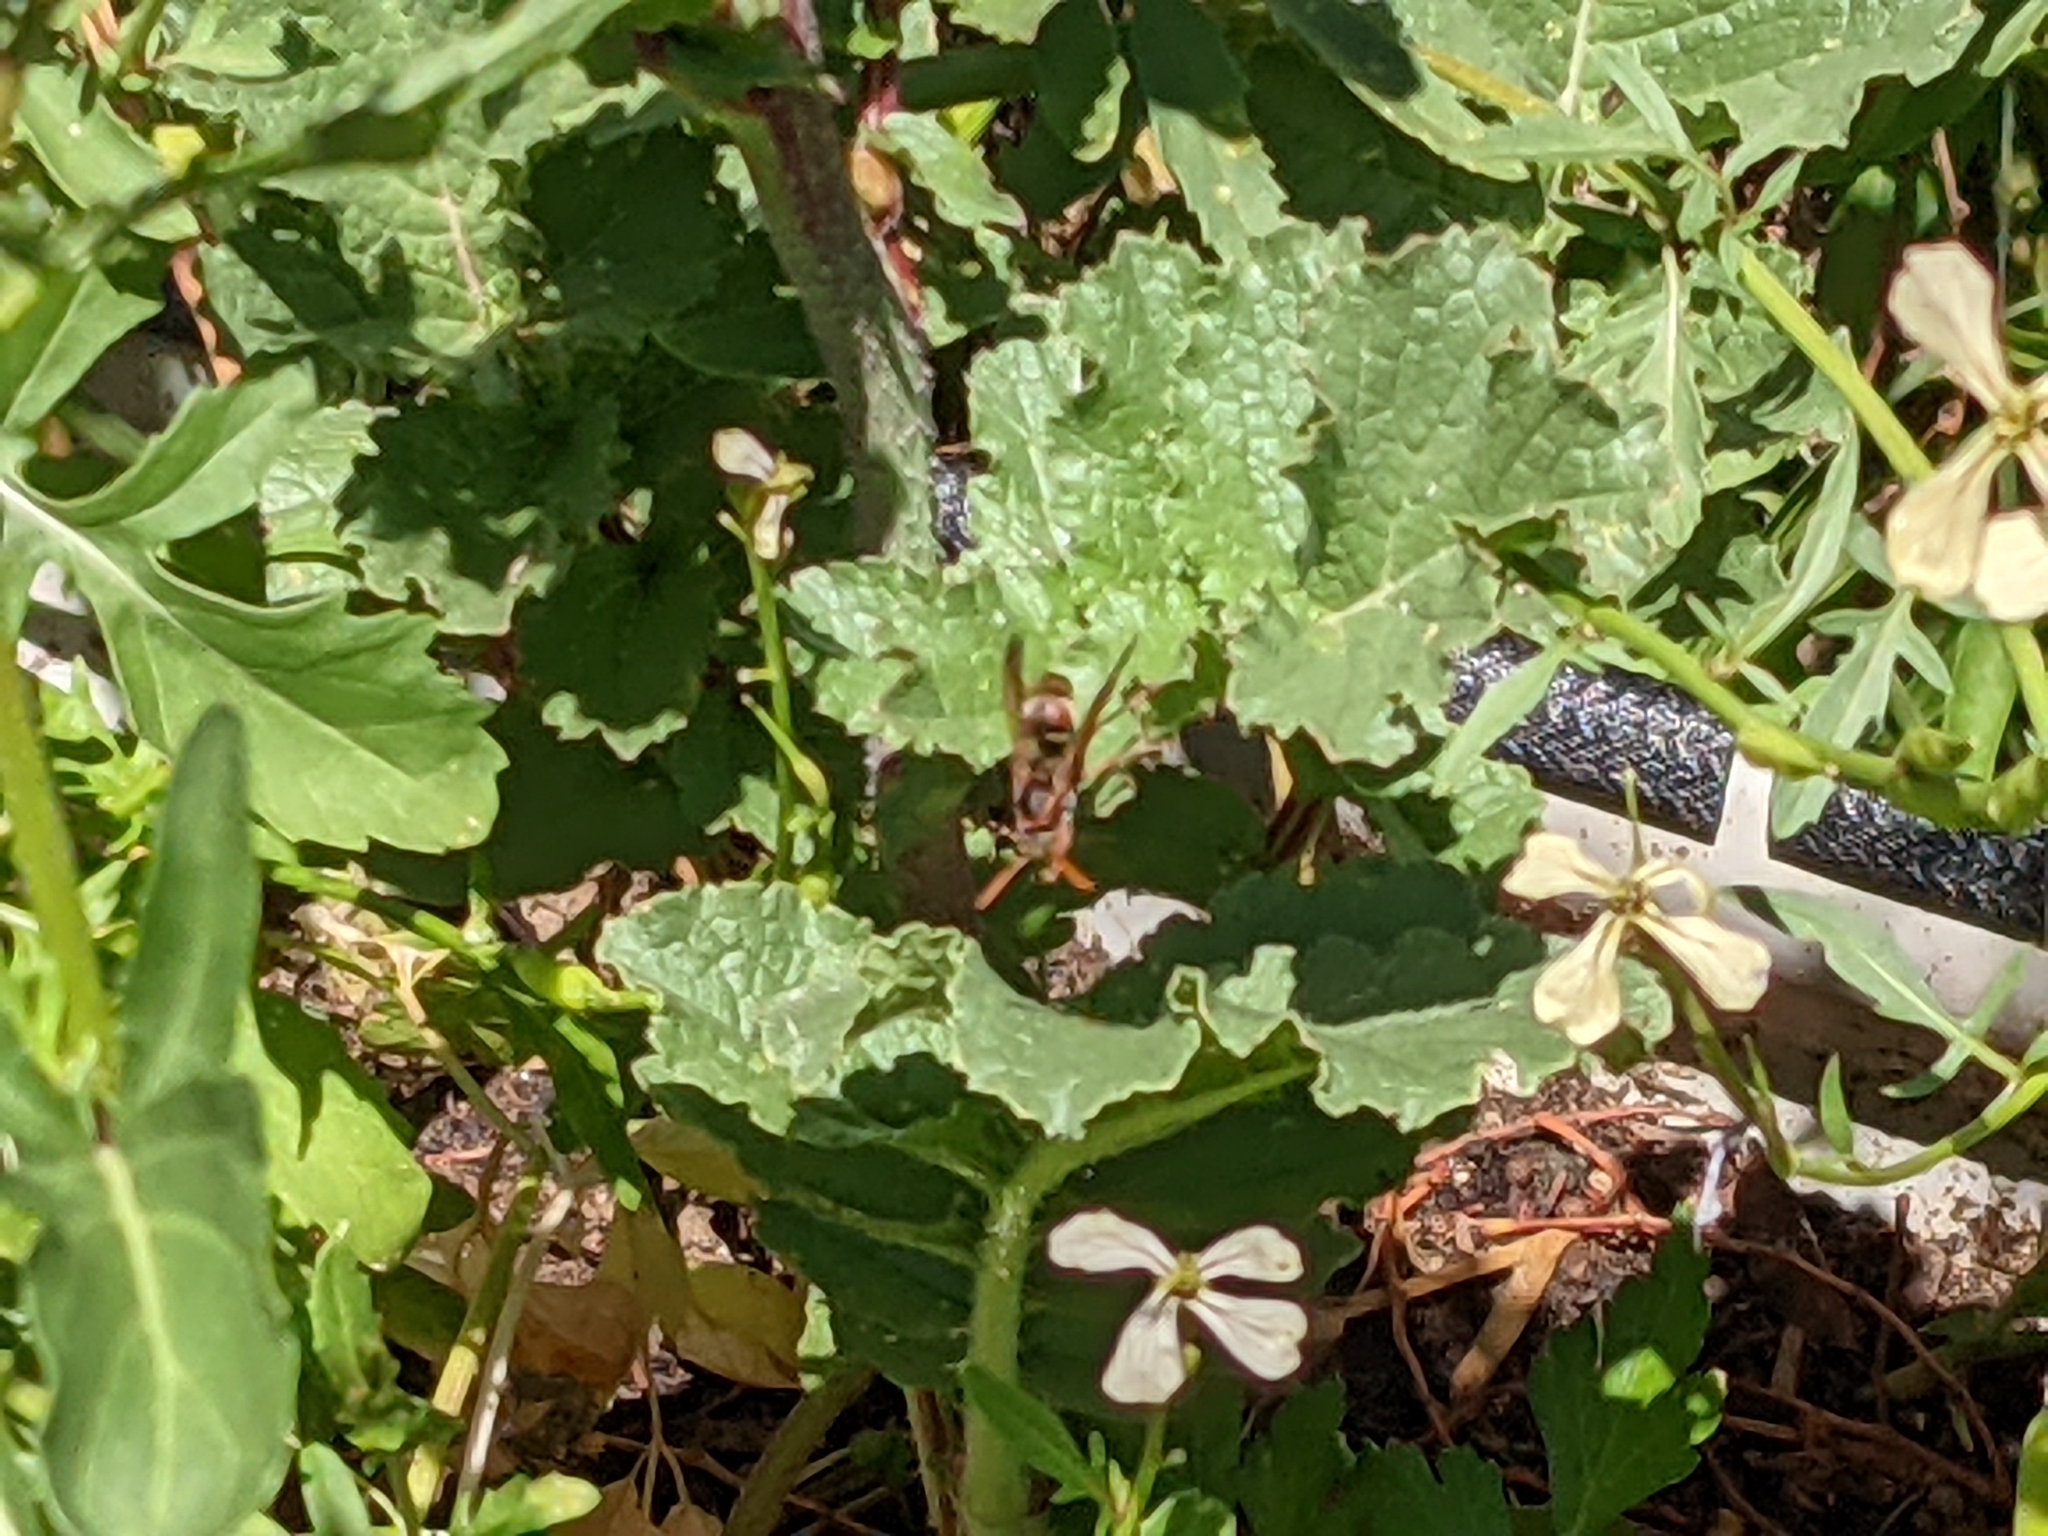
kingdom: Animalia
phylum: Arthropoda
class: Insecta
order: Hymenoptera
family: Eumenidae
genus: Polistes
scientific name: Polistes humilis
